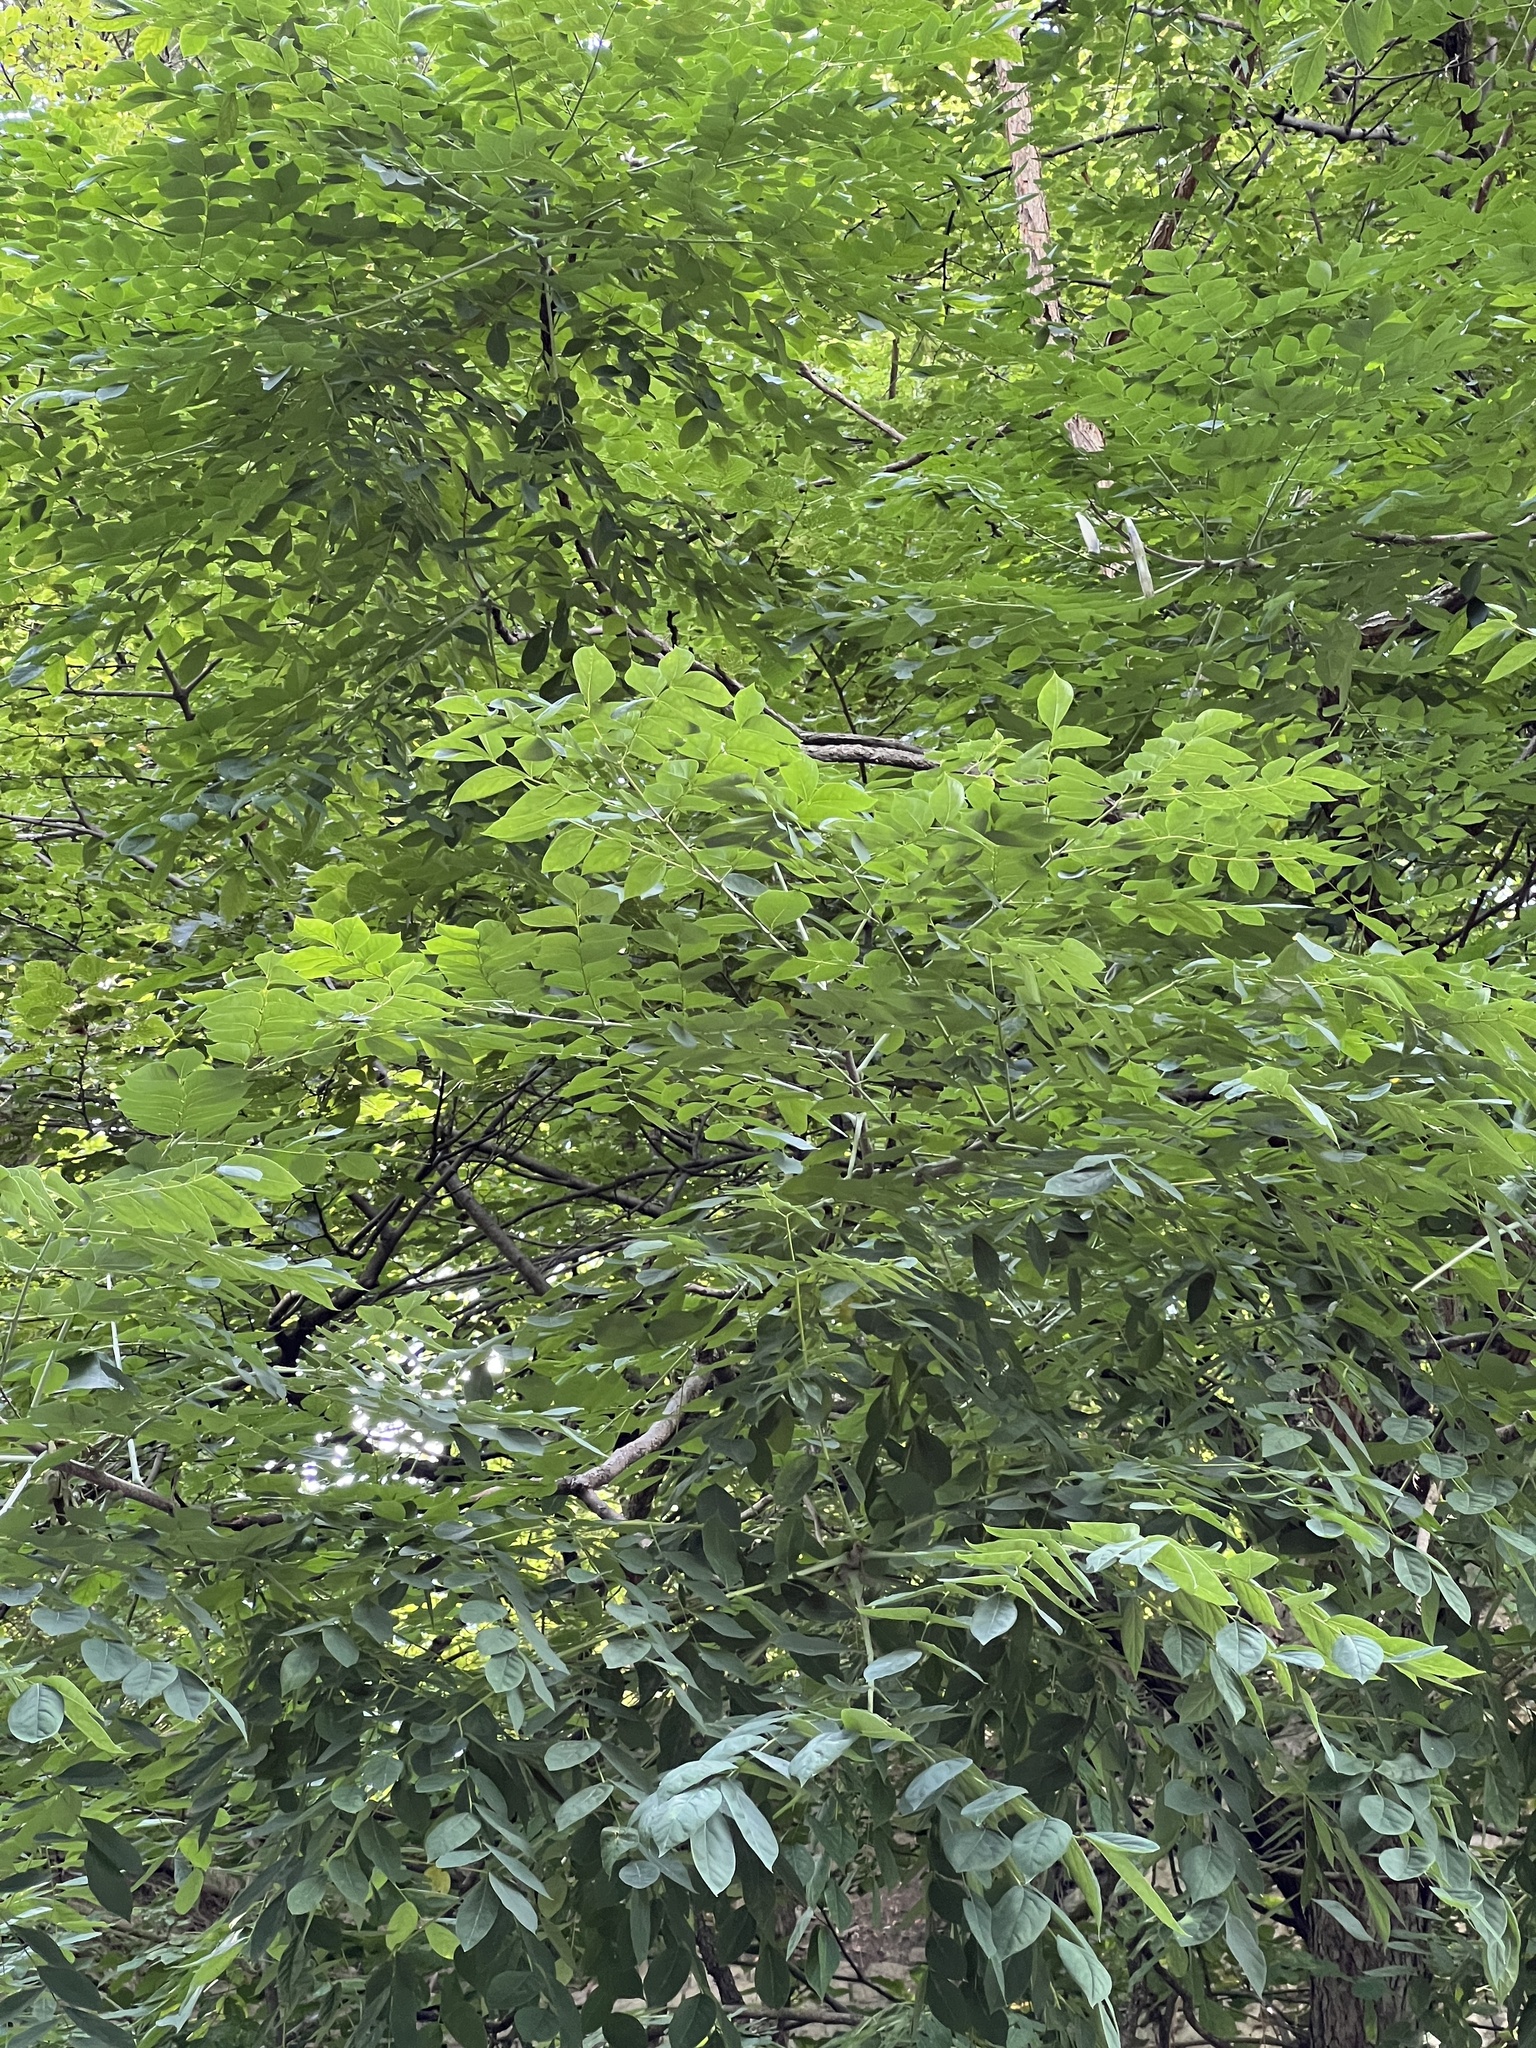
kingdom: Plantae
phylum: Tracheophyta
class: Magnoliopsida
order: Fabales
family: Fabaceae
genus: Gymnocladus
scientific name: Gymnocladus dioicus
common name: Kentucky coffee-tree
